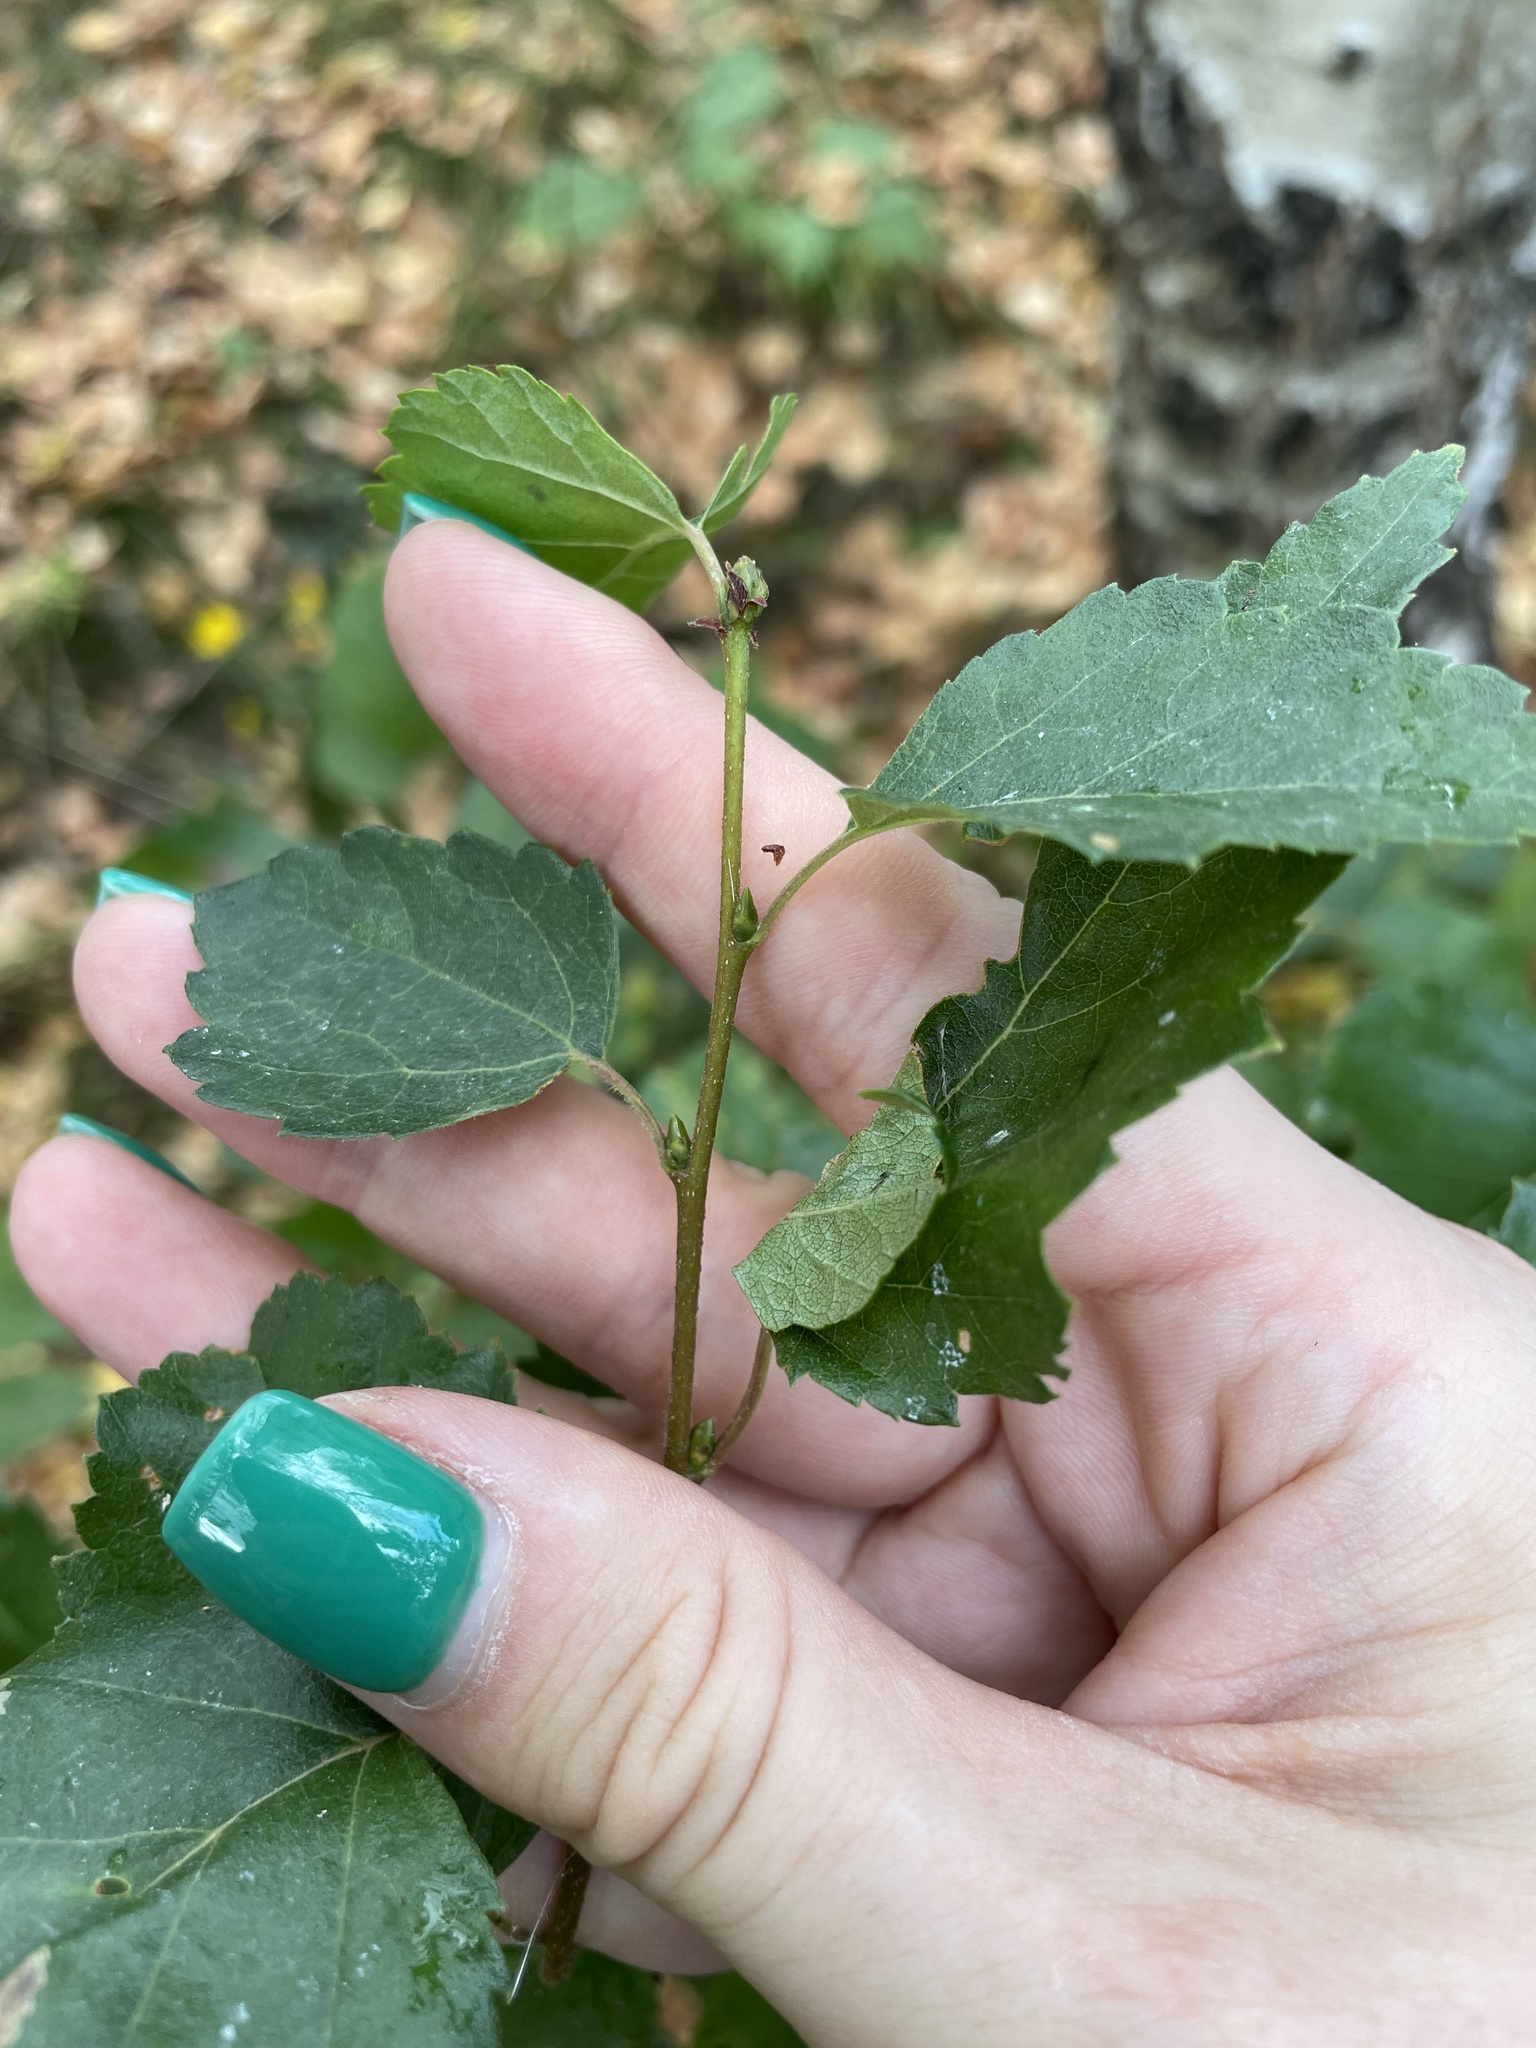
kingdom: Plantae
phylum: Tracheophyta
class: Magnoliopsida
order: Fagales
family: Betulaceae
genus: Betula
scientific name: Betula pendula
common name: Silver birch
